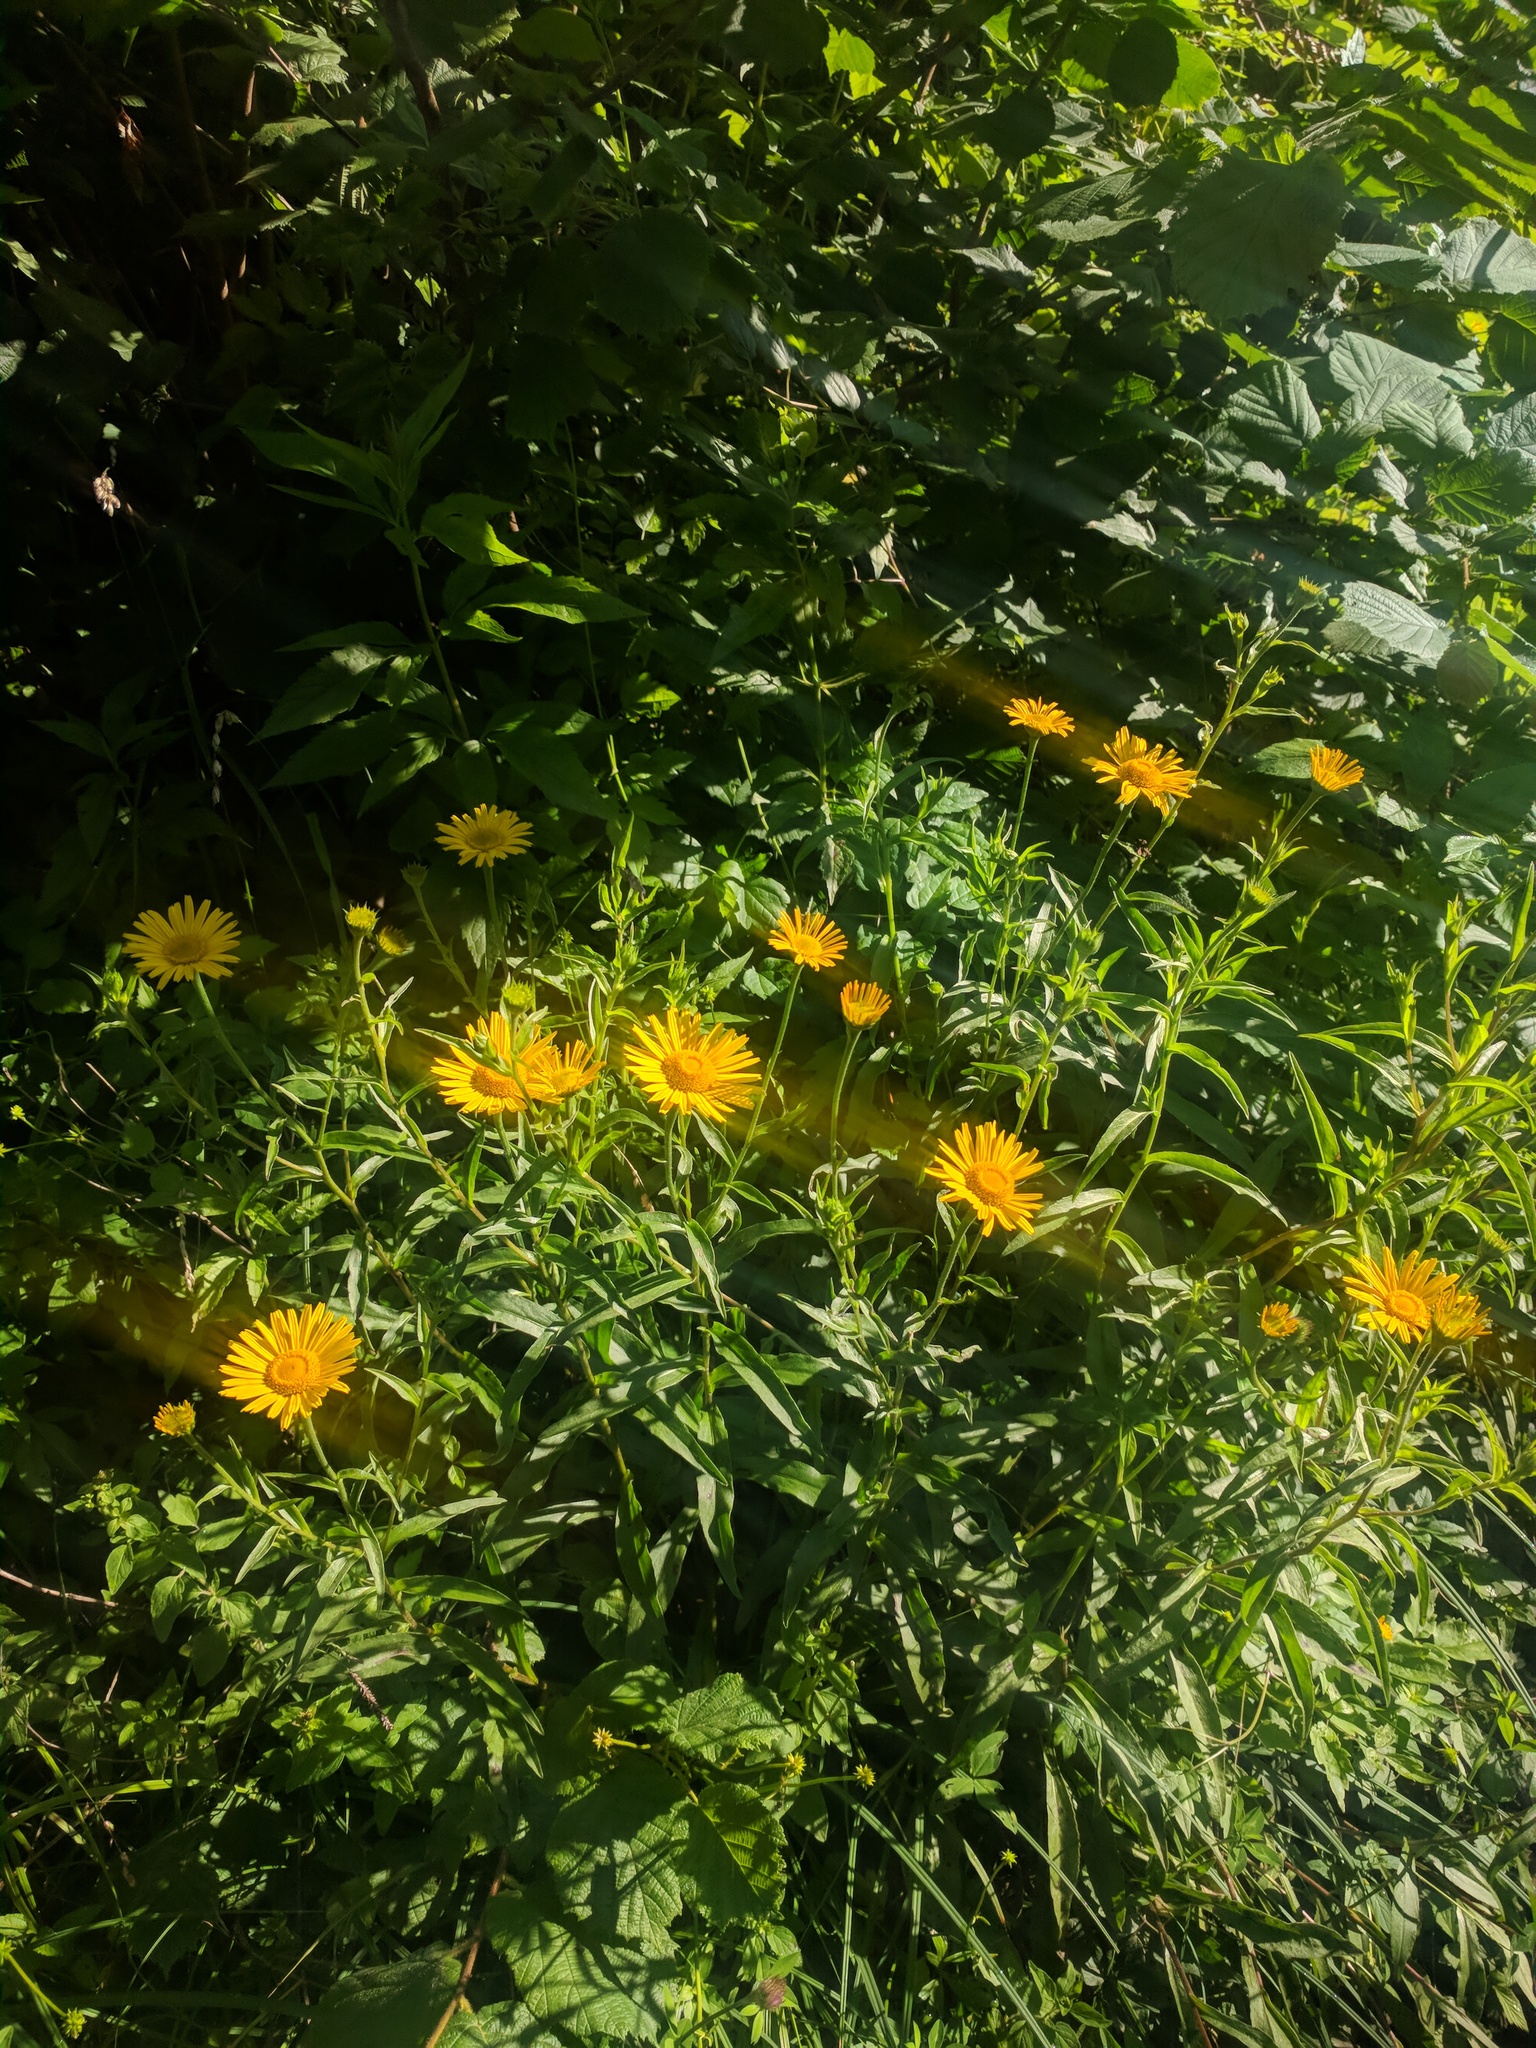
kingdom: Plantae
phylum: Tracheophyta
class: Magnoliopsida
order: Asterales
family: Asteraceae
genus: Buphthalmum
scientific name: Buphthalmum salicifolium
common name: Willow-leaved yellow-oxeye
